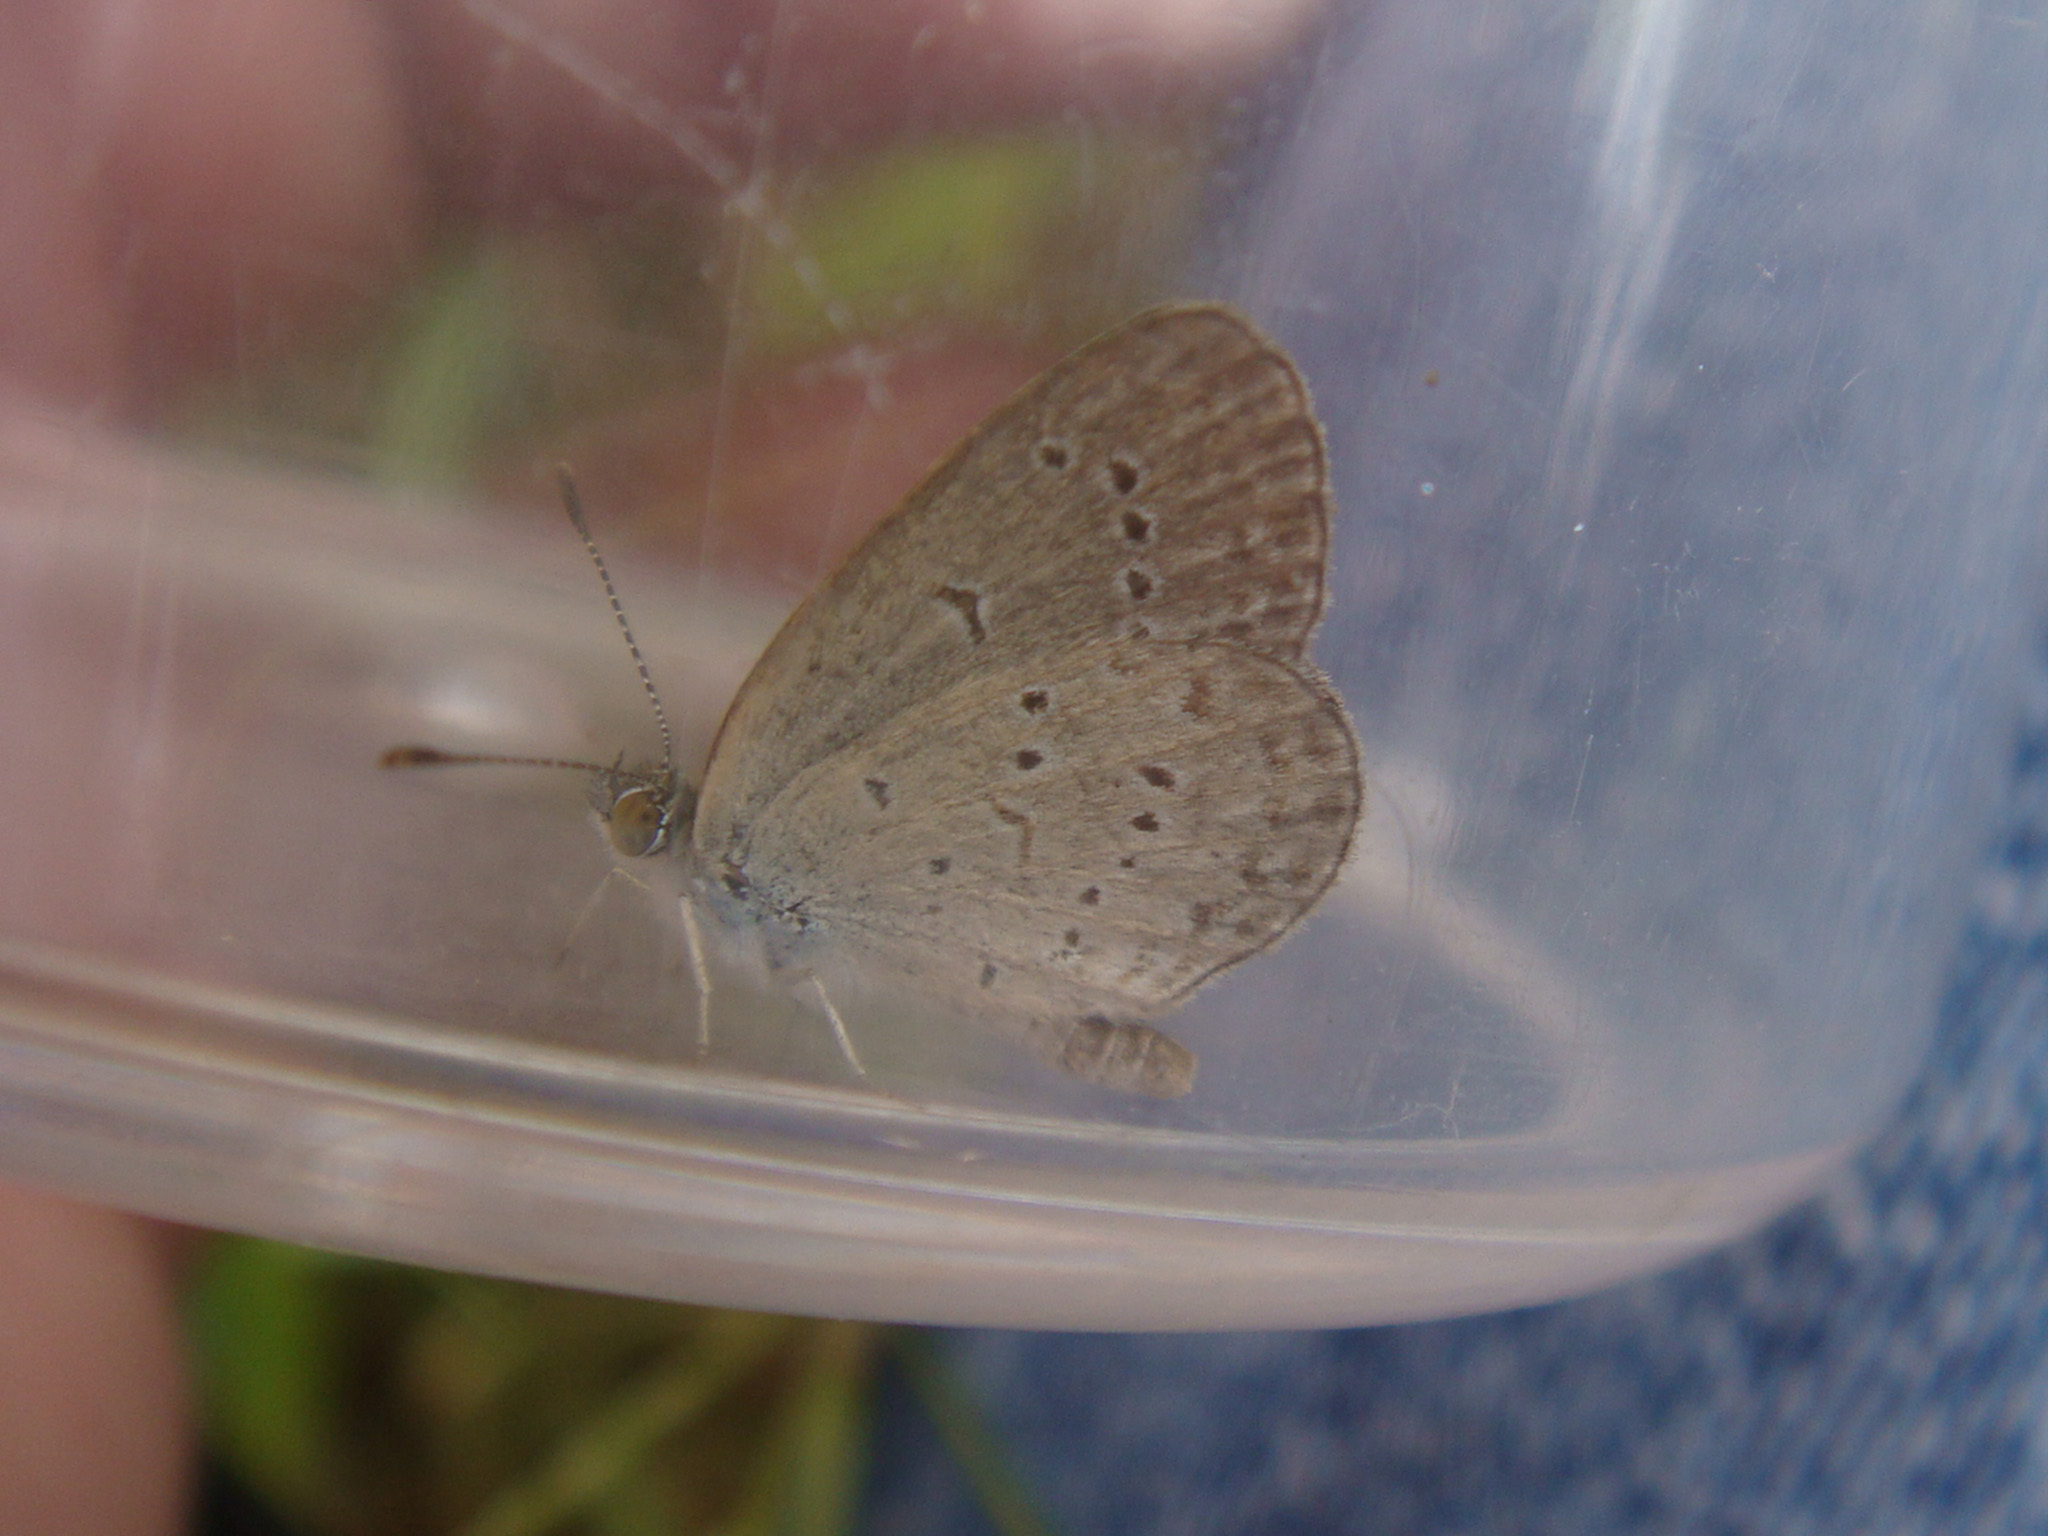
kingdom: Animalia
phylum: Arthropoda
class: Insecta
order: Lepidoptera
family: Lycaenidae
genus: Zizina
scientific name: Zizina otis
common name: Lesser grass blue
